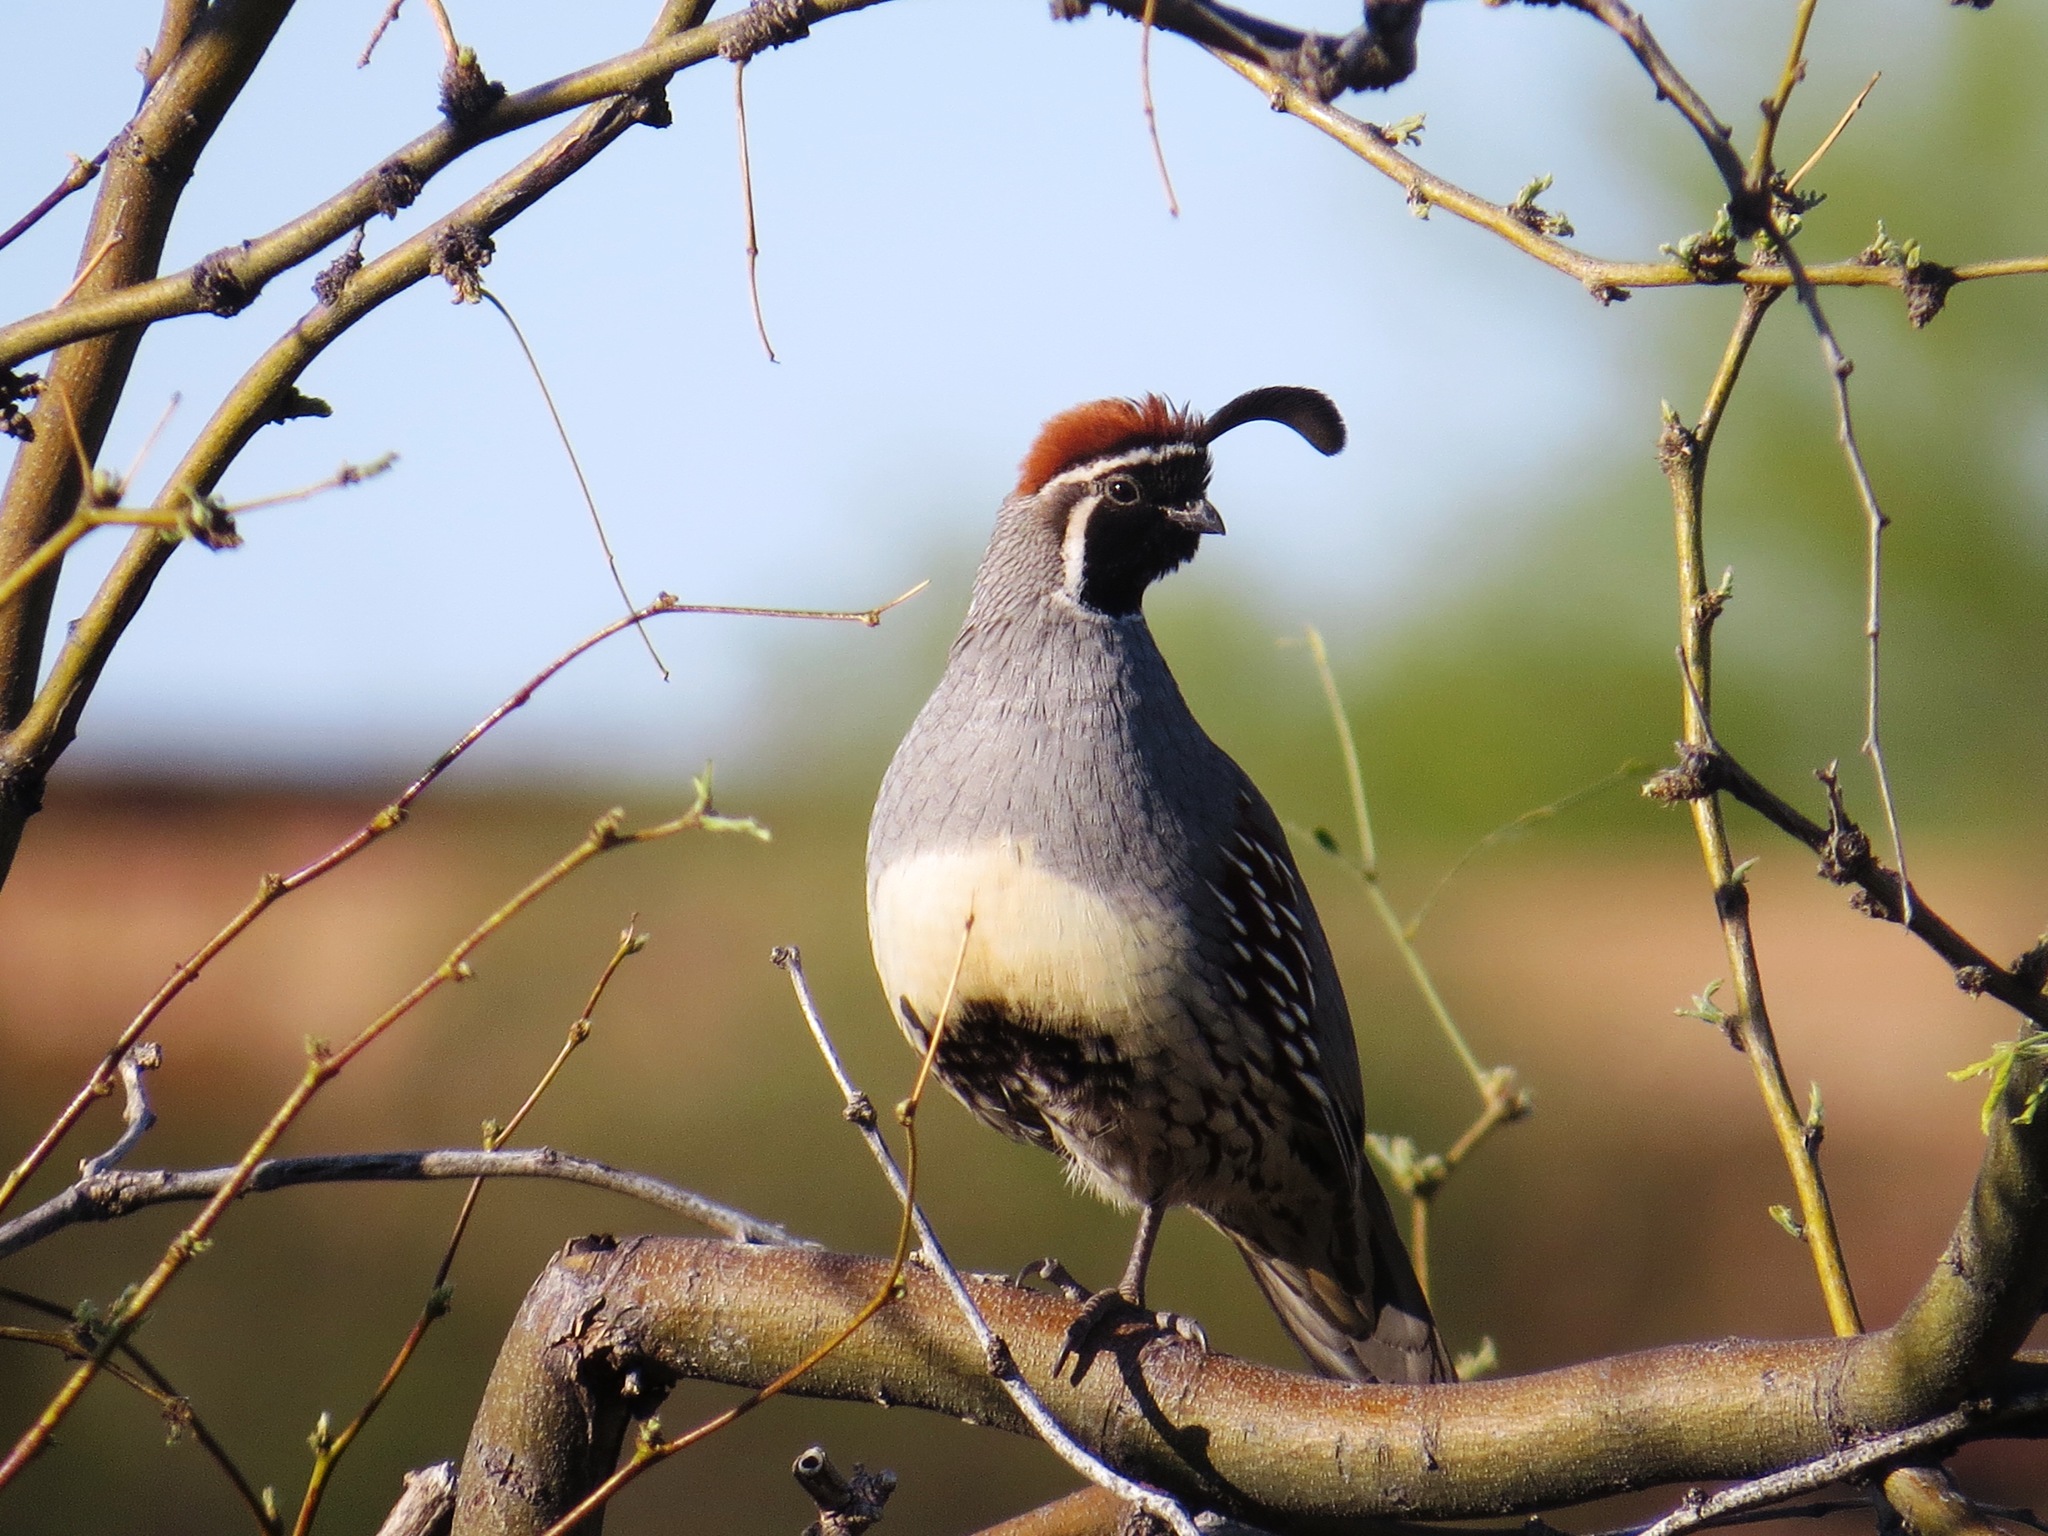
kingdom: Animalia
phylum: Chordata
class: Aves
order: Galliformes
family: Odontophoridae
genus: Callipepla
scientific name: Callipepla gambelii
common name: Gambel's quail
